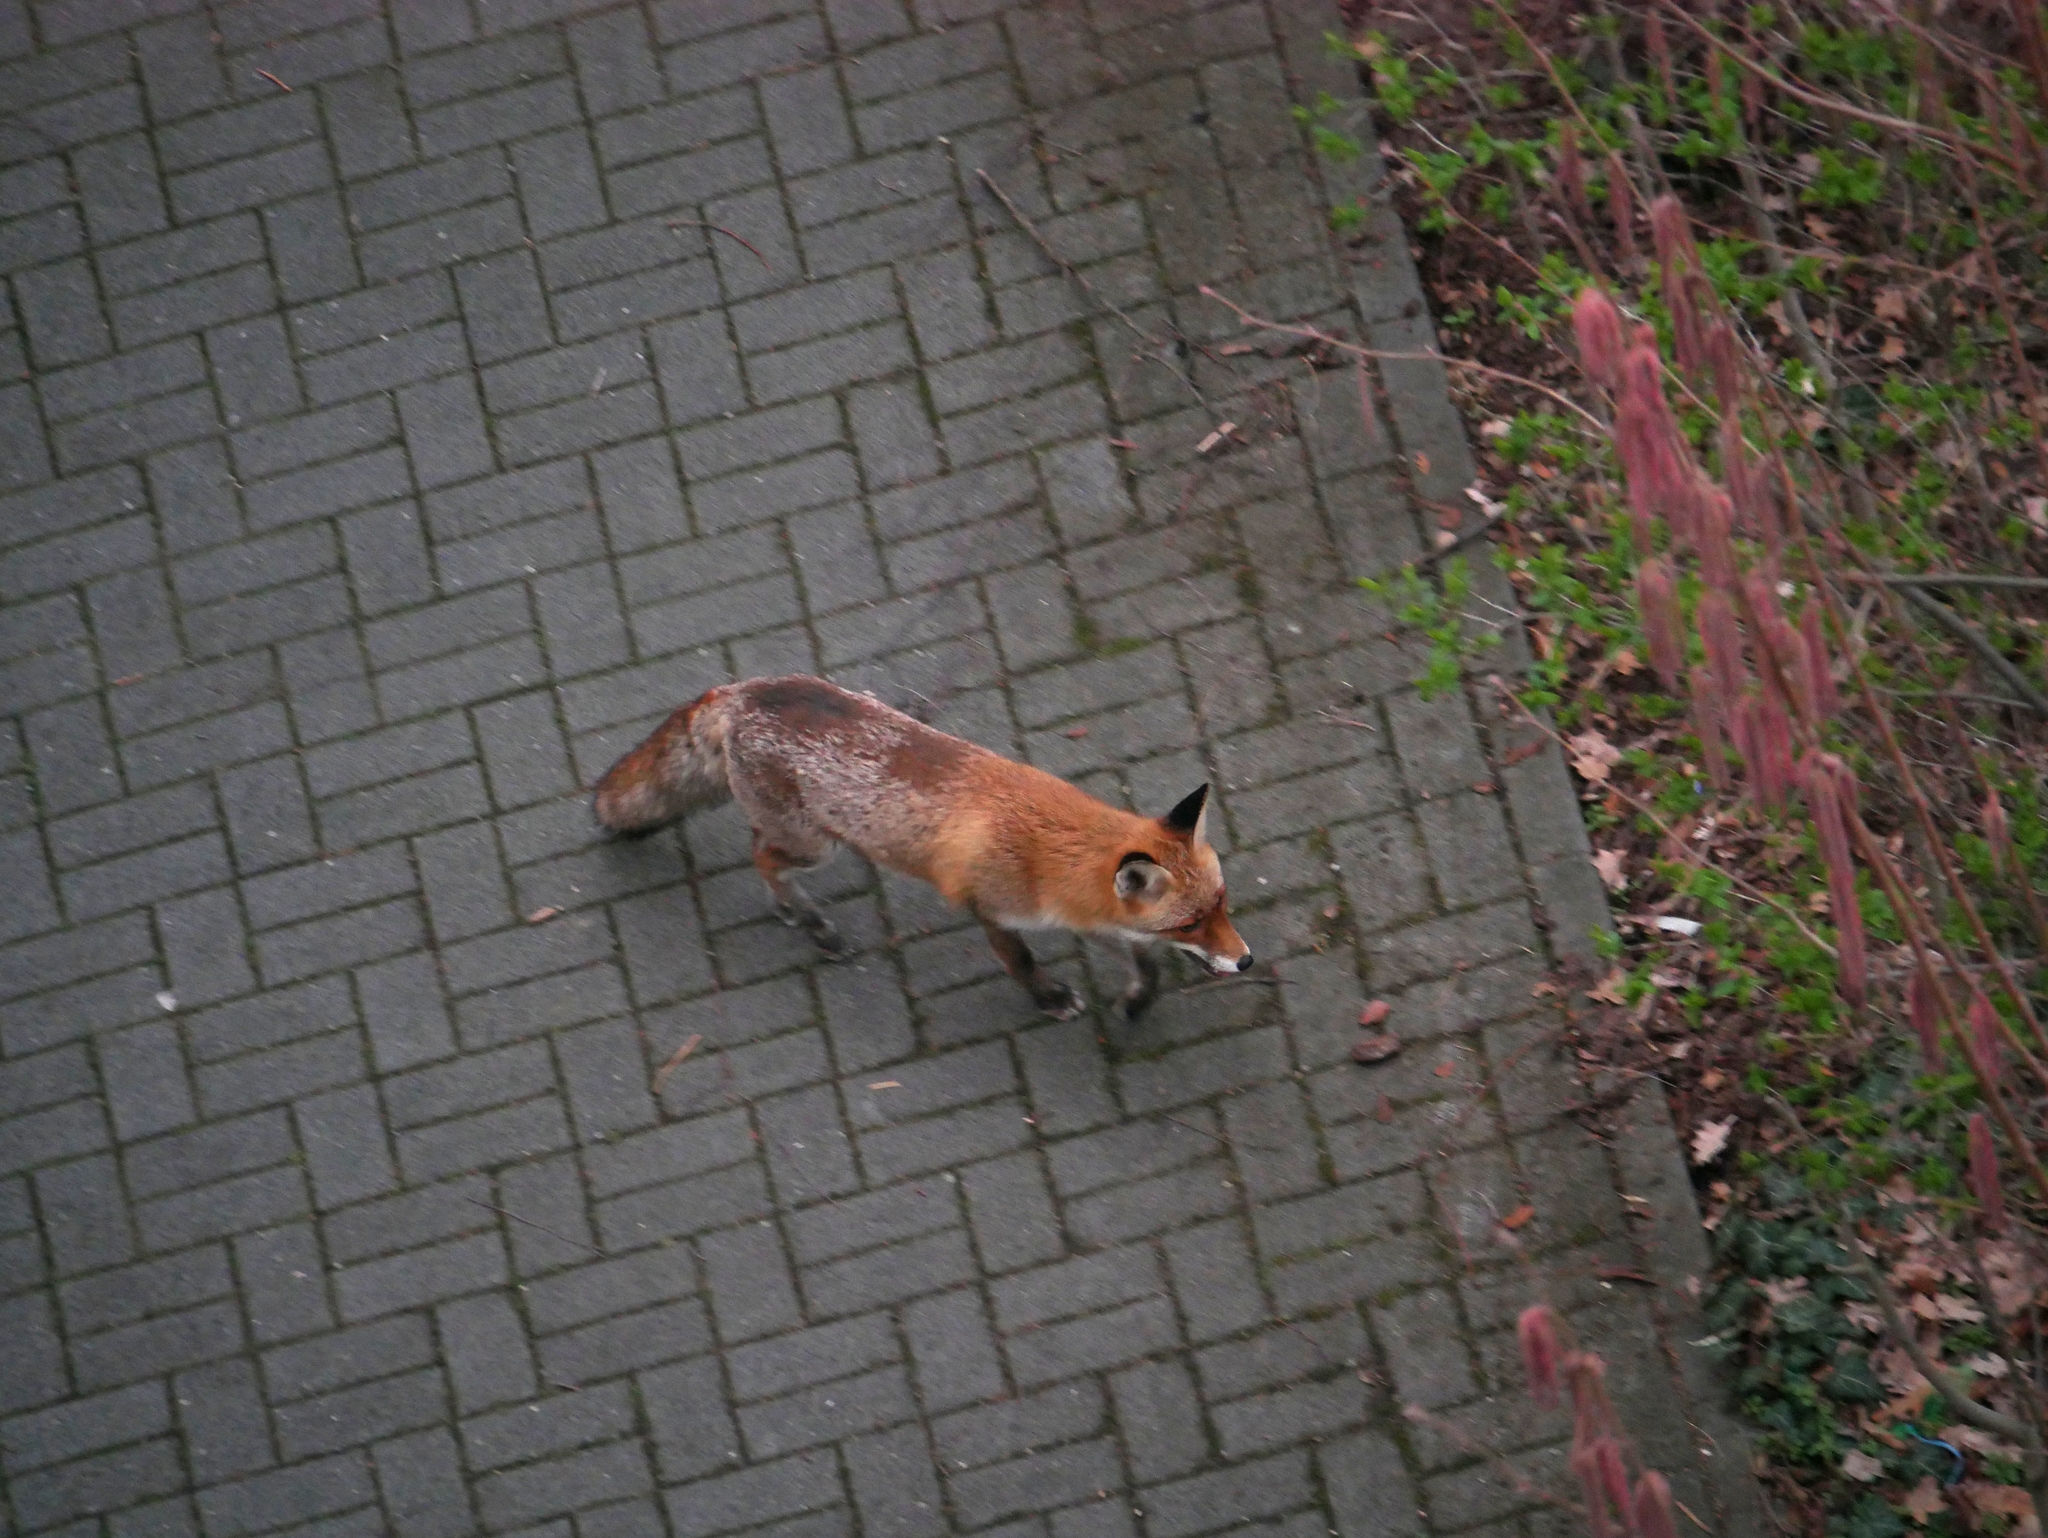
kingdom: Animalia
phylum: Chordata
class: Mammalia
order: Carnivora
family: Canidae
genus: Vulpes
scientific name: Vulpes vulpes
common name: Red fox
